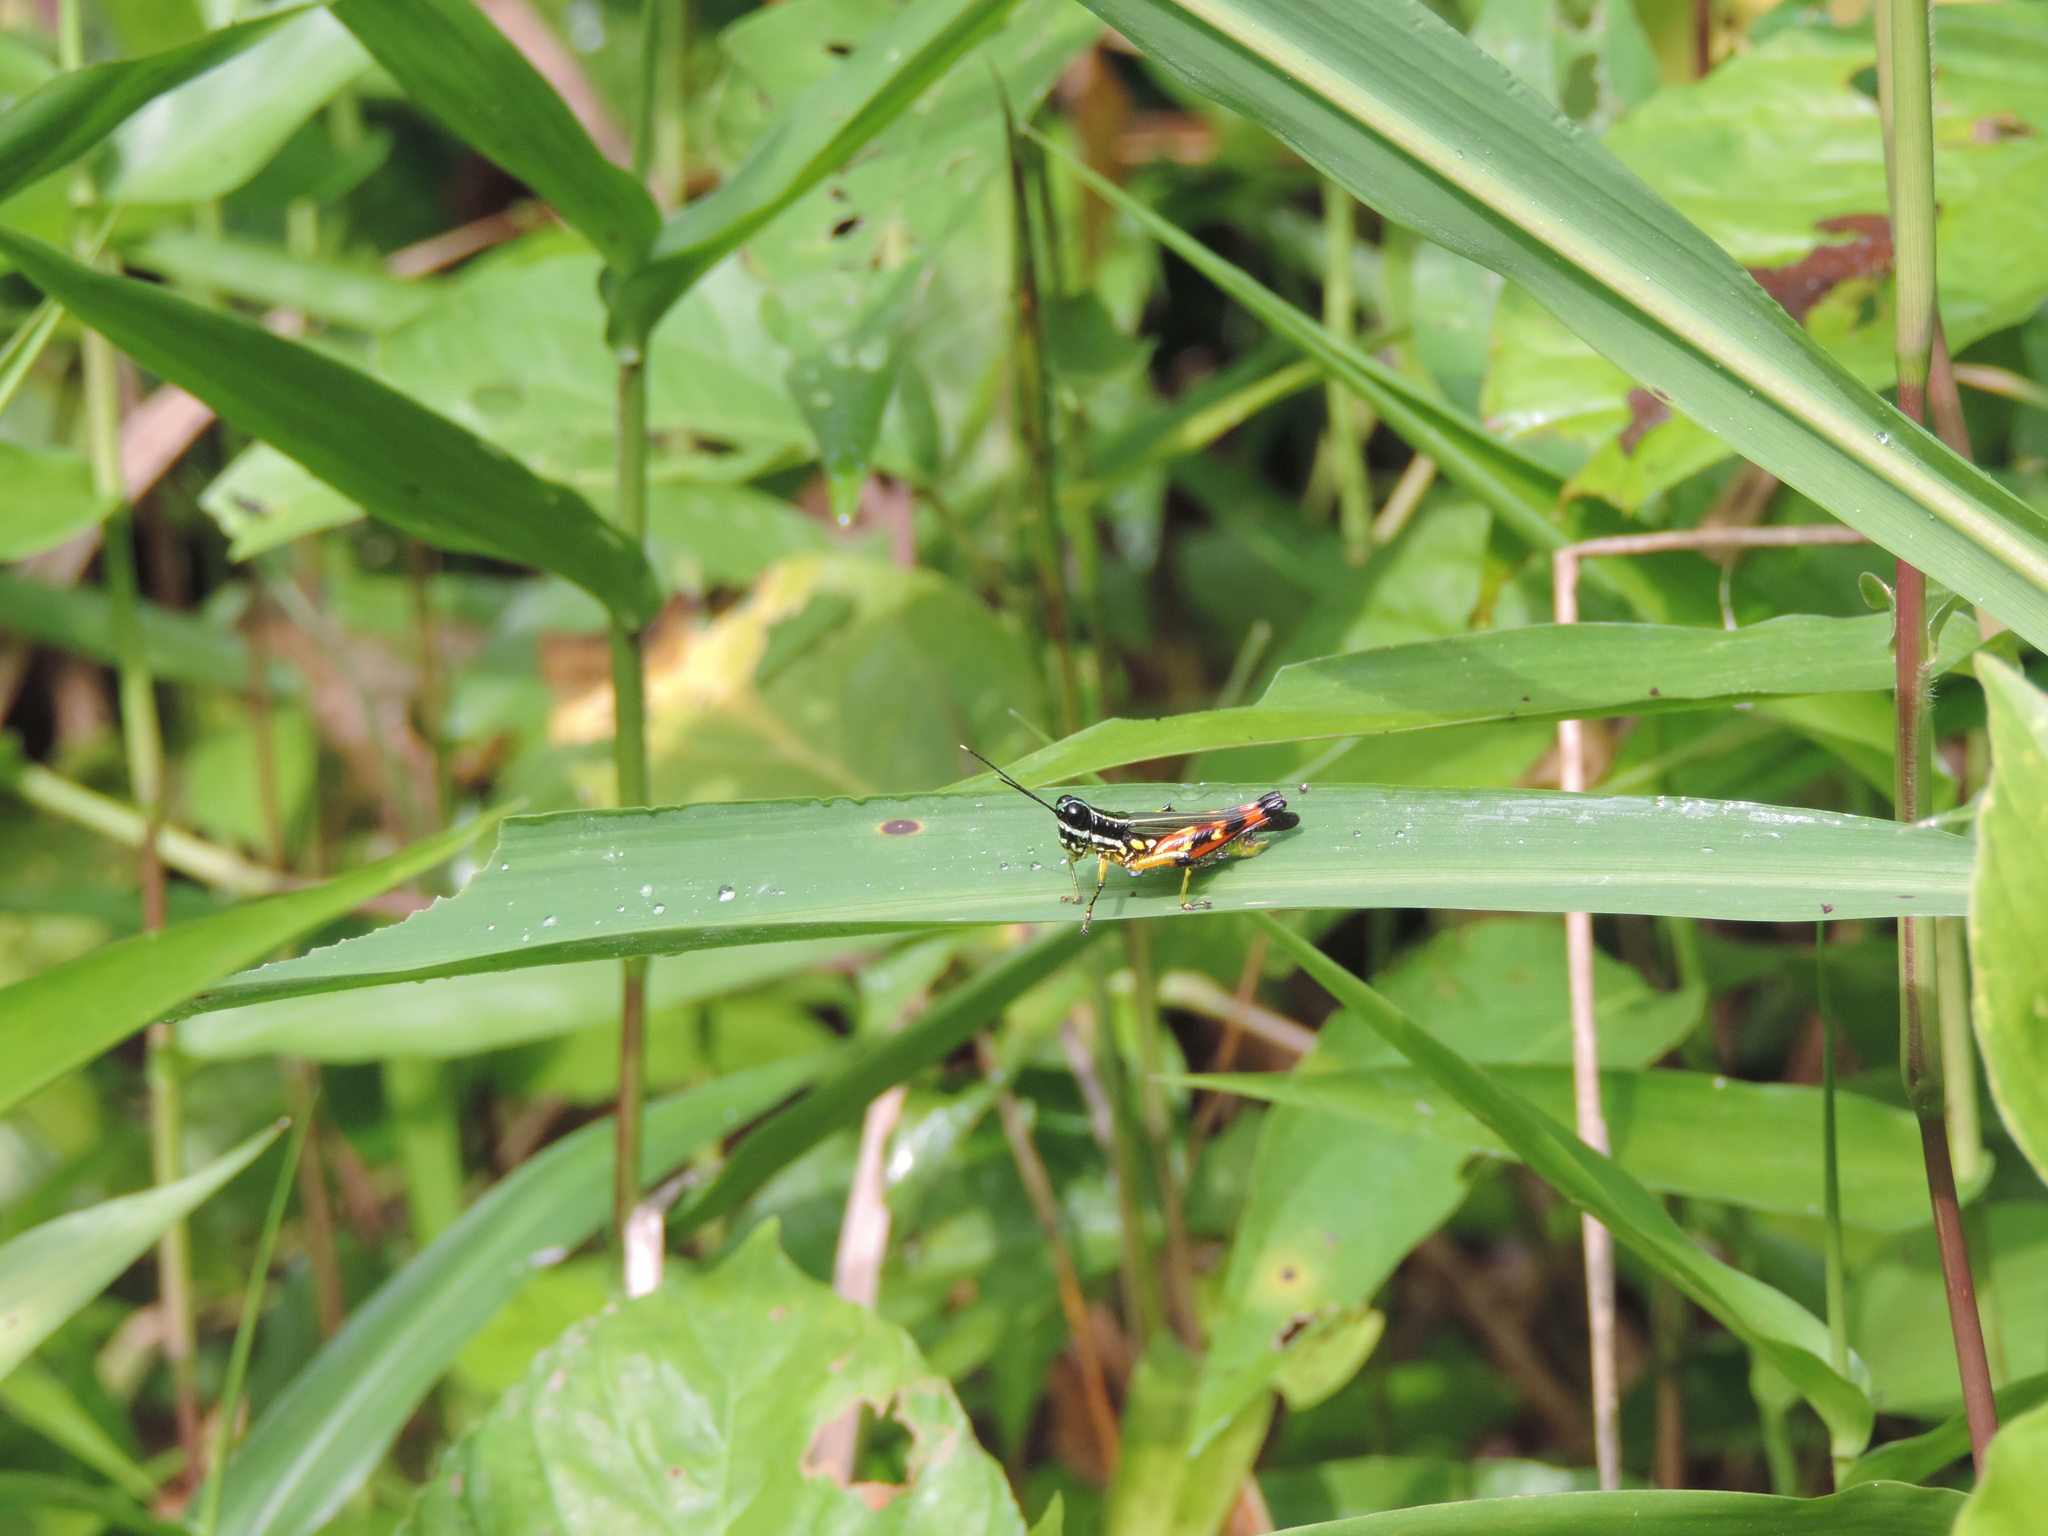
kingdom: Animalia
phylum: Arthropoda
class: Insecta
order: Orthoptera
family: Acrididae
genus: Tetrataenia
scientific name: Tetrataenia surinama
